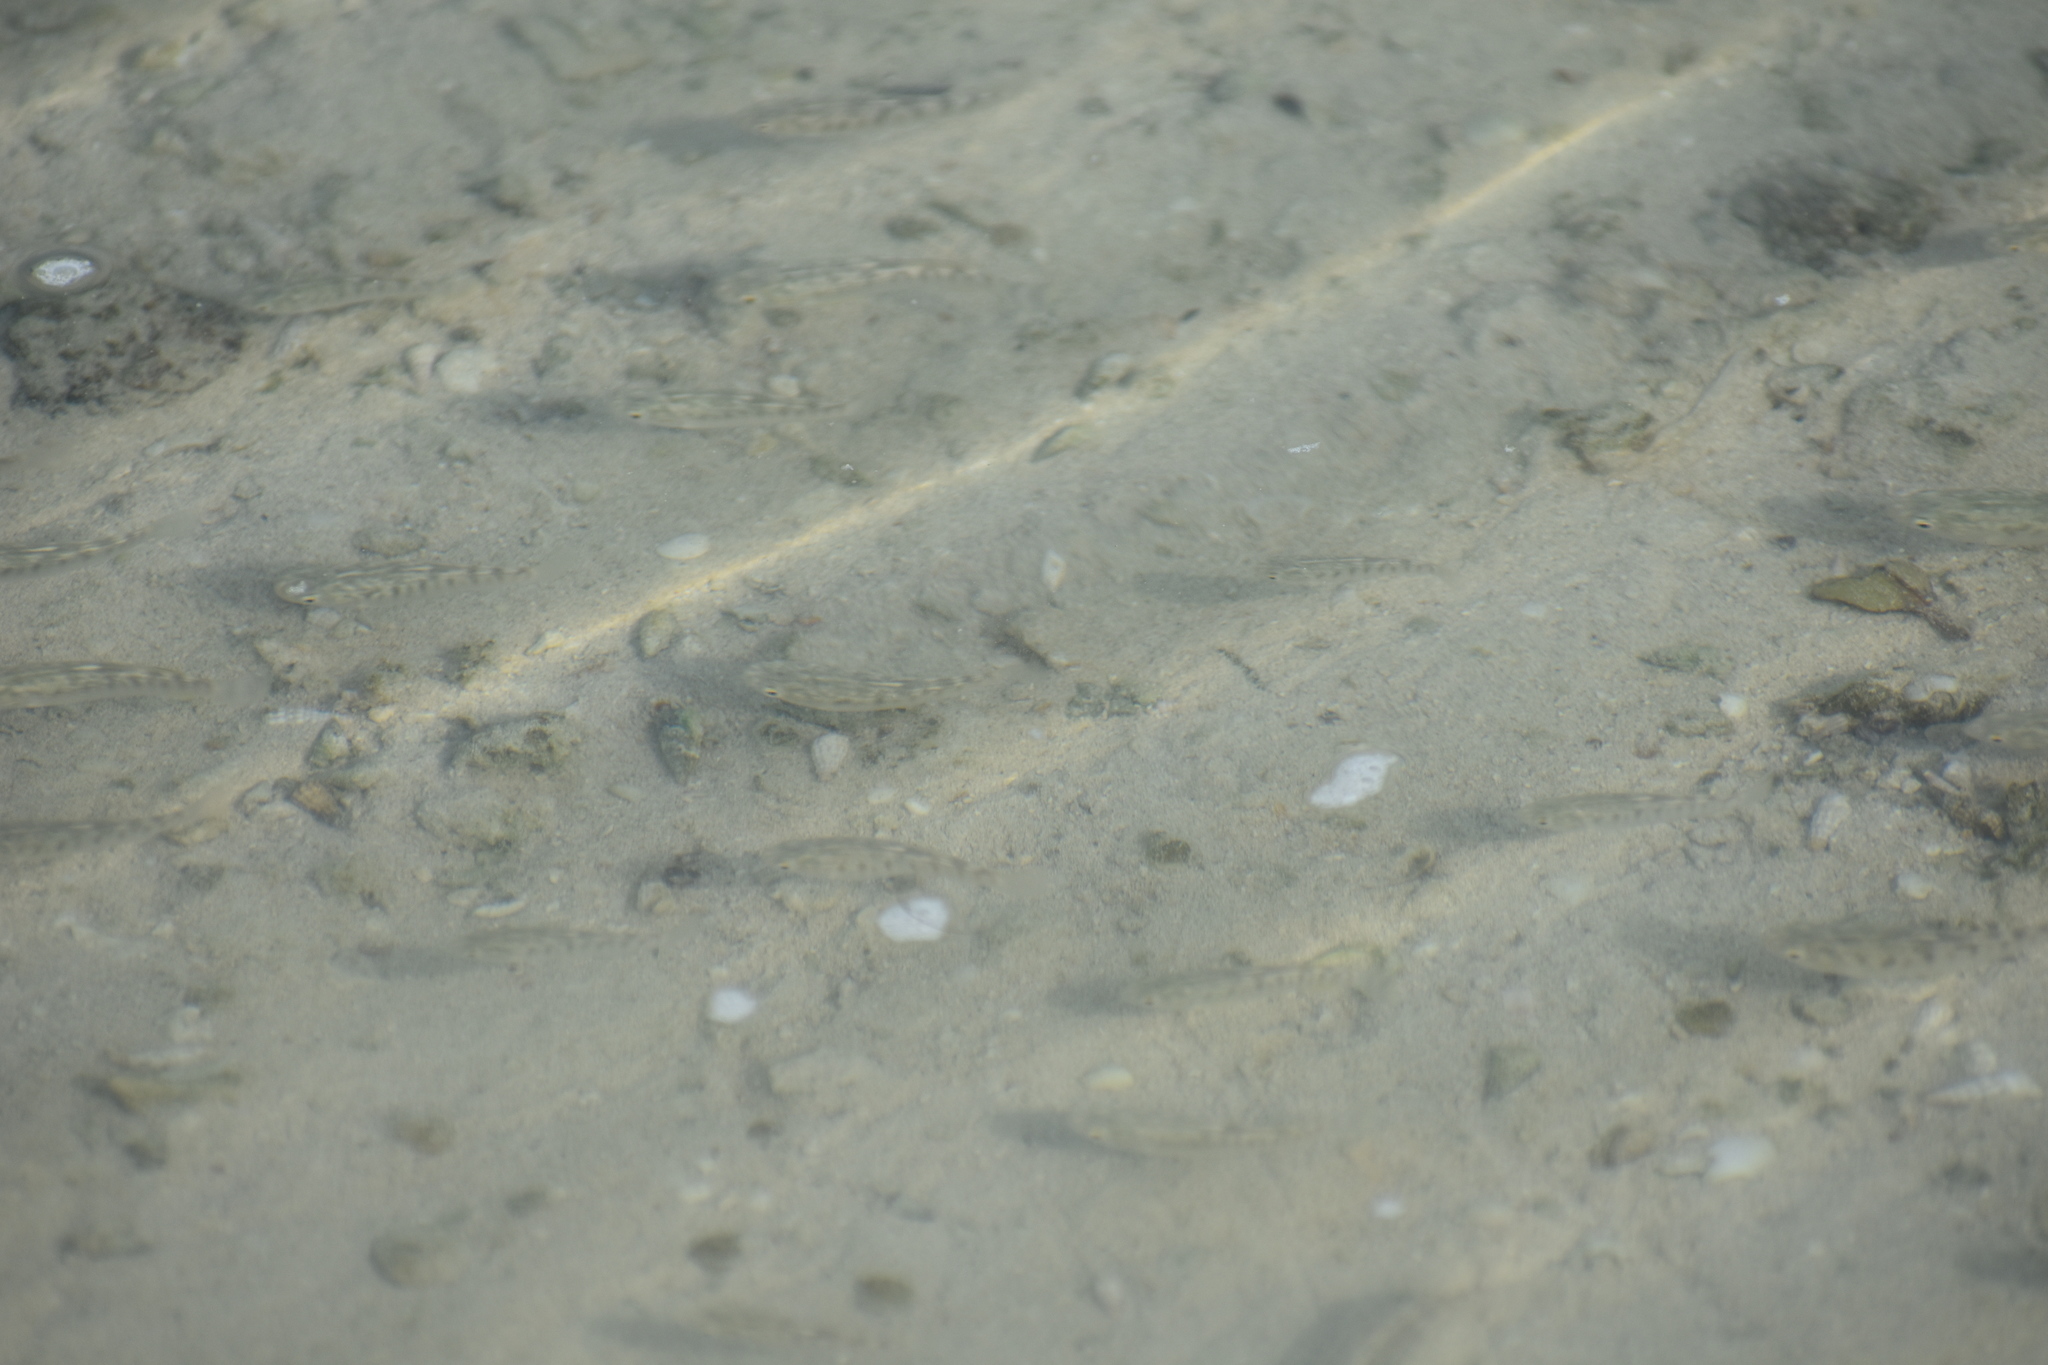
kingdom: Animalia
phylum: Chordata
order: Cyprinodontiformes
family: Cyprinodontidae
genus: Aphanius
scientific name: Aphanius dispar
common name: Arabian toothcarp
